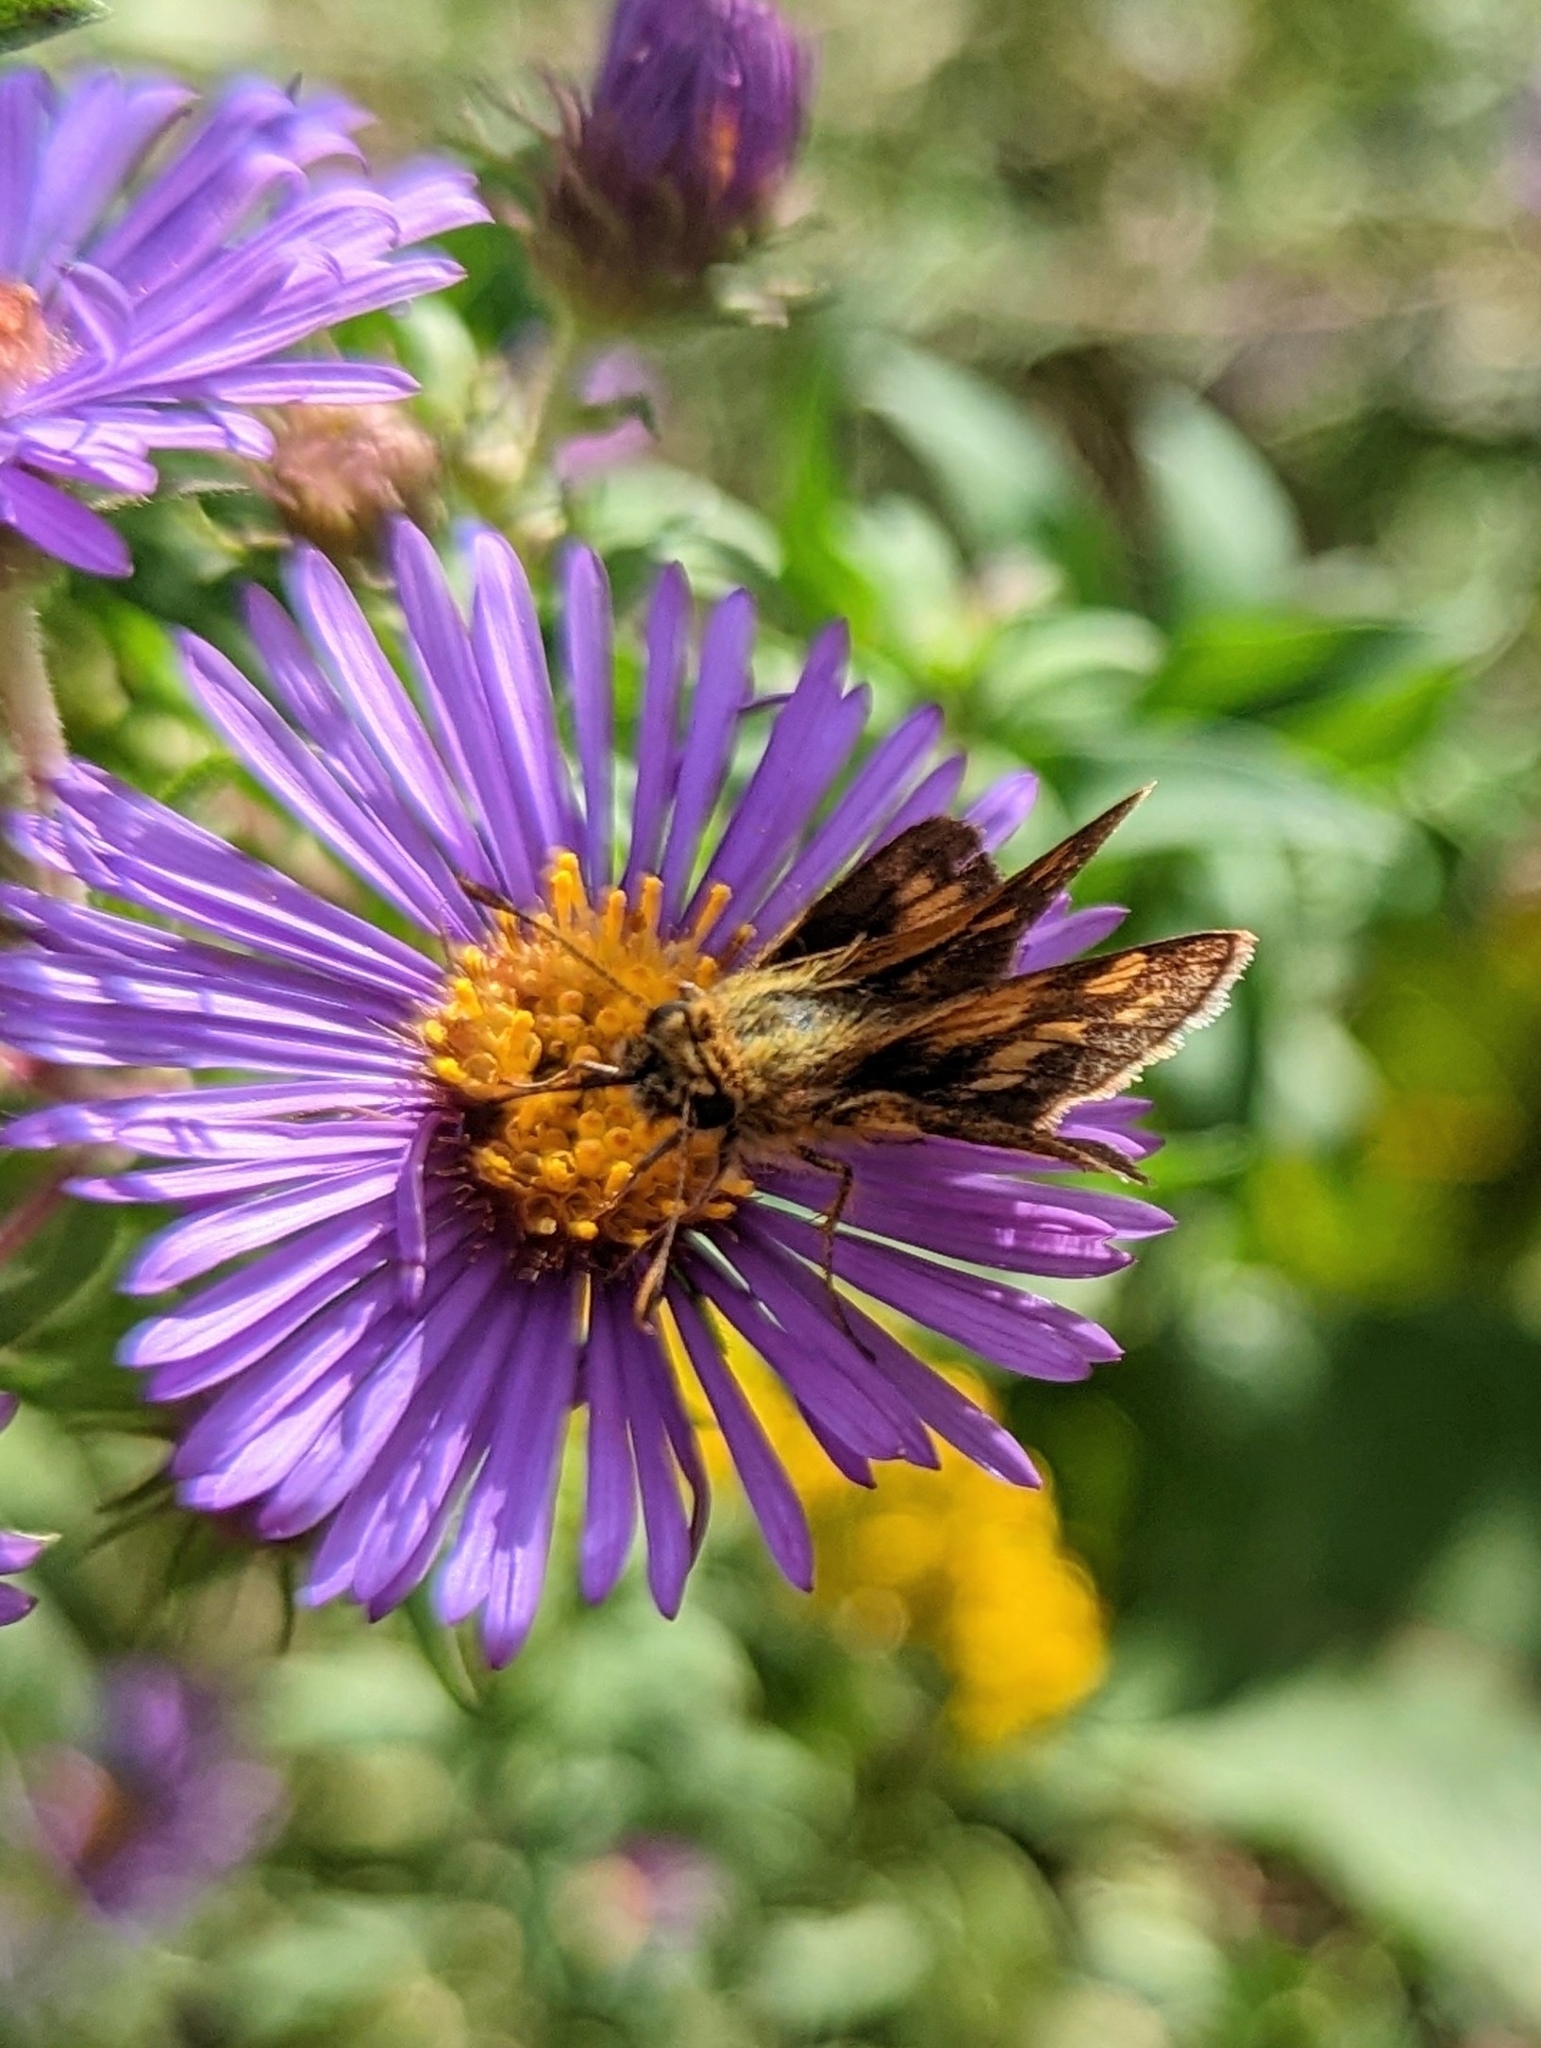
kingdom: Animalia
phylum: Arthropoda
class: Insecta
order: Lepidoptera
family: Hesperiidae
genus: Polites
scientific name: Polites coras
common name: Peck's skipper
